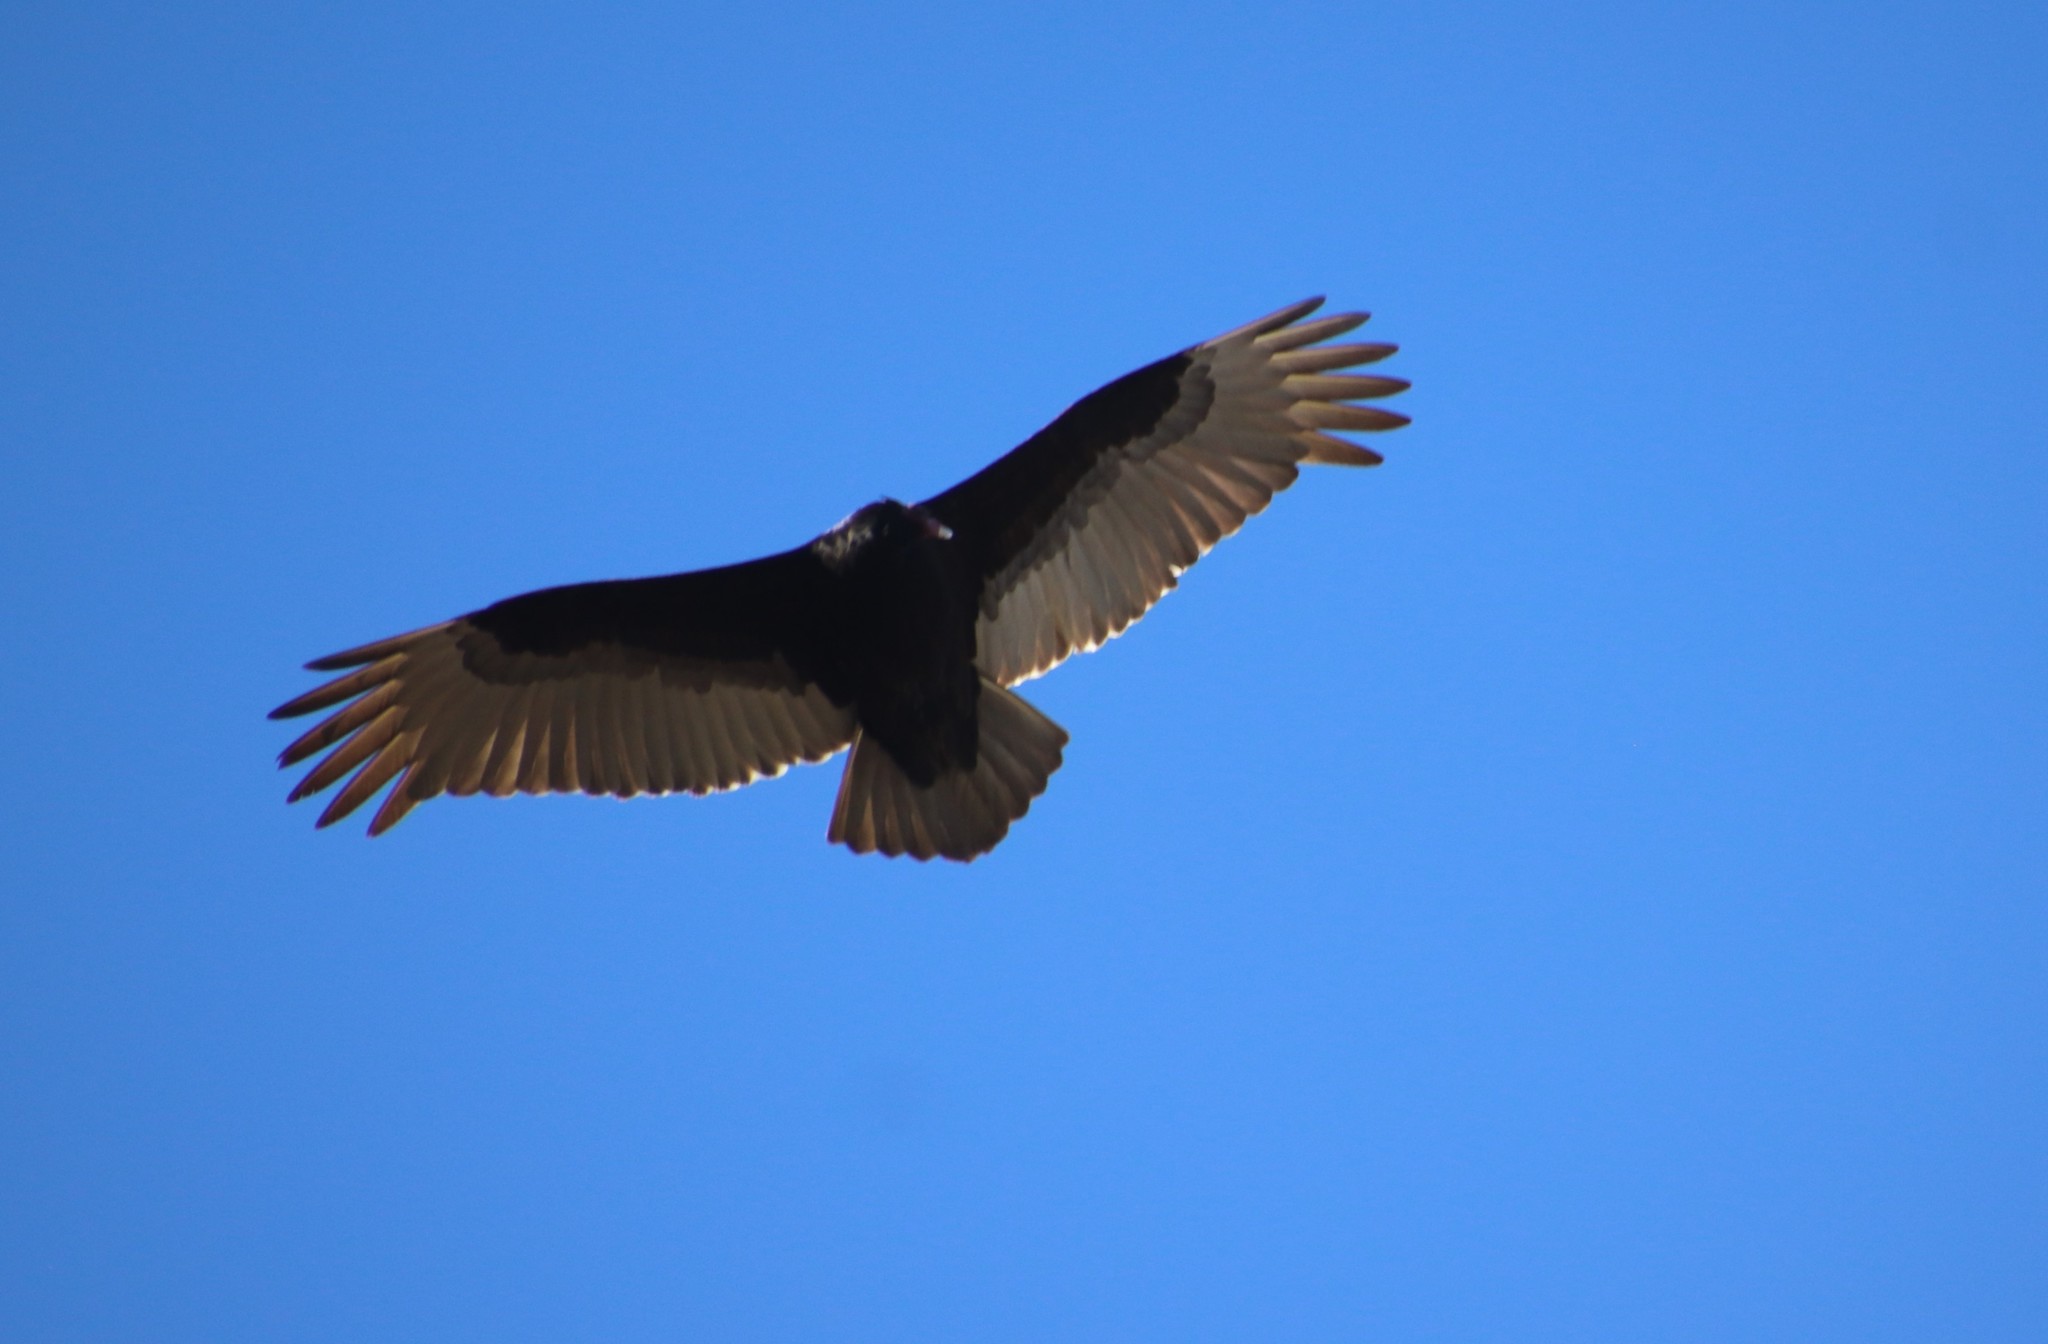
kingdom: Animalia
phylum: Chordata
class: Aves
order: Accipitriformes
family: Cathartidae
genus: Cathartes
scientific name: Cathartes aura
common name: Turkey vulture
